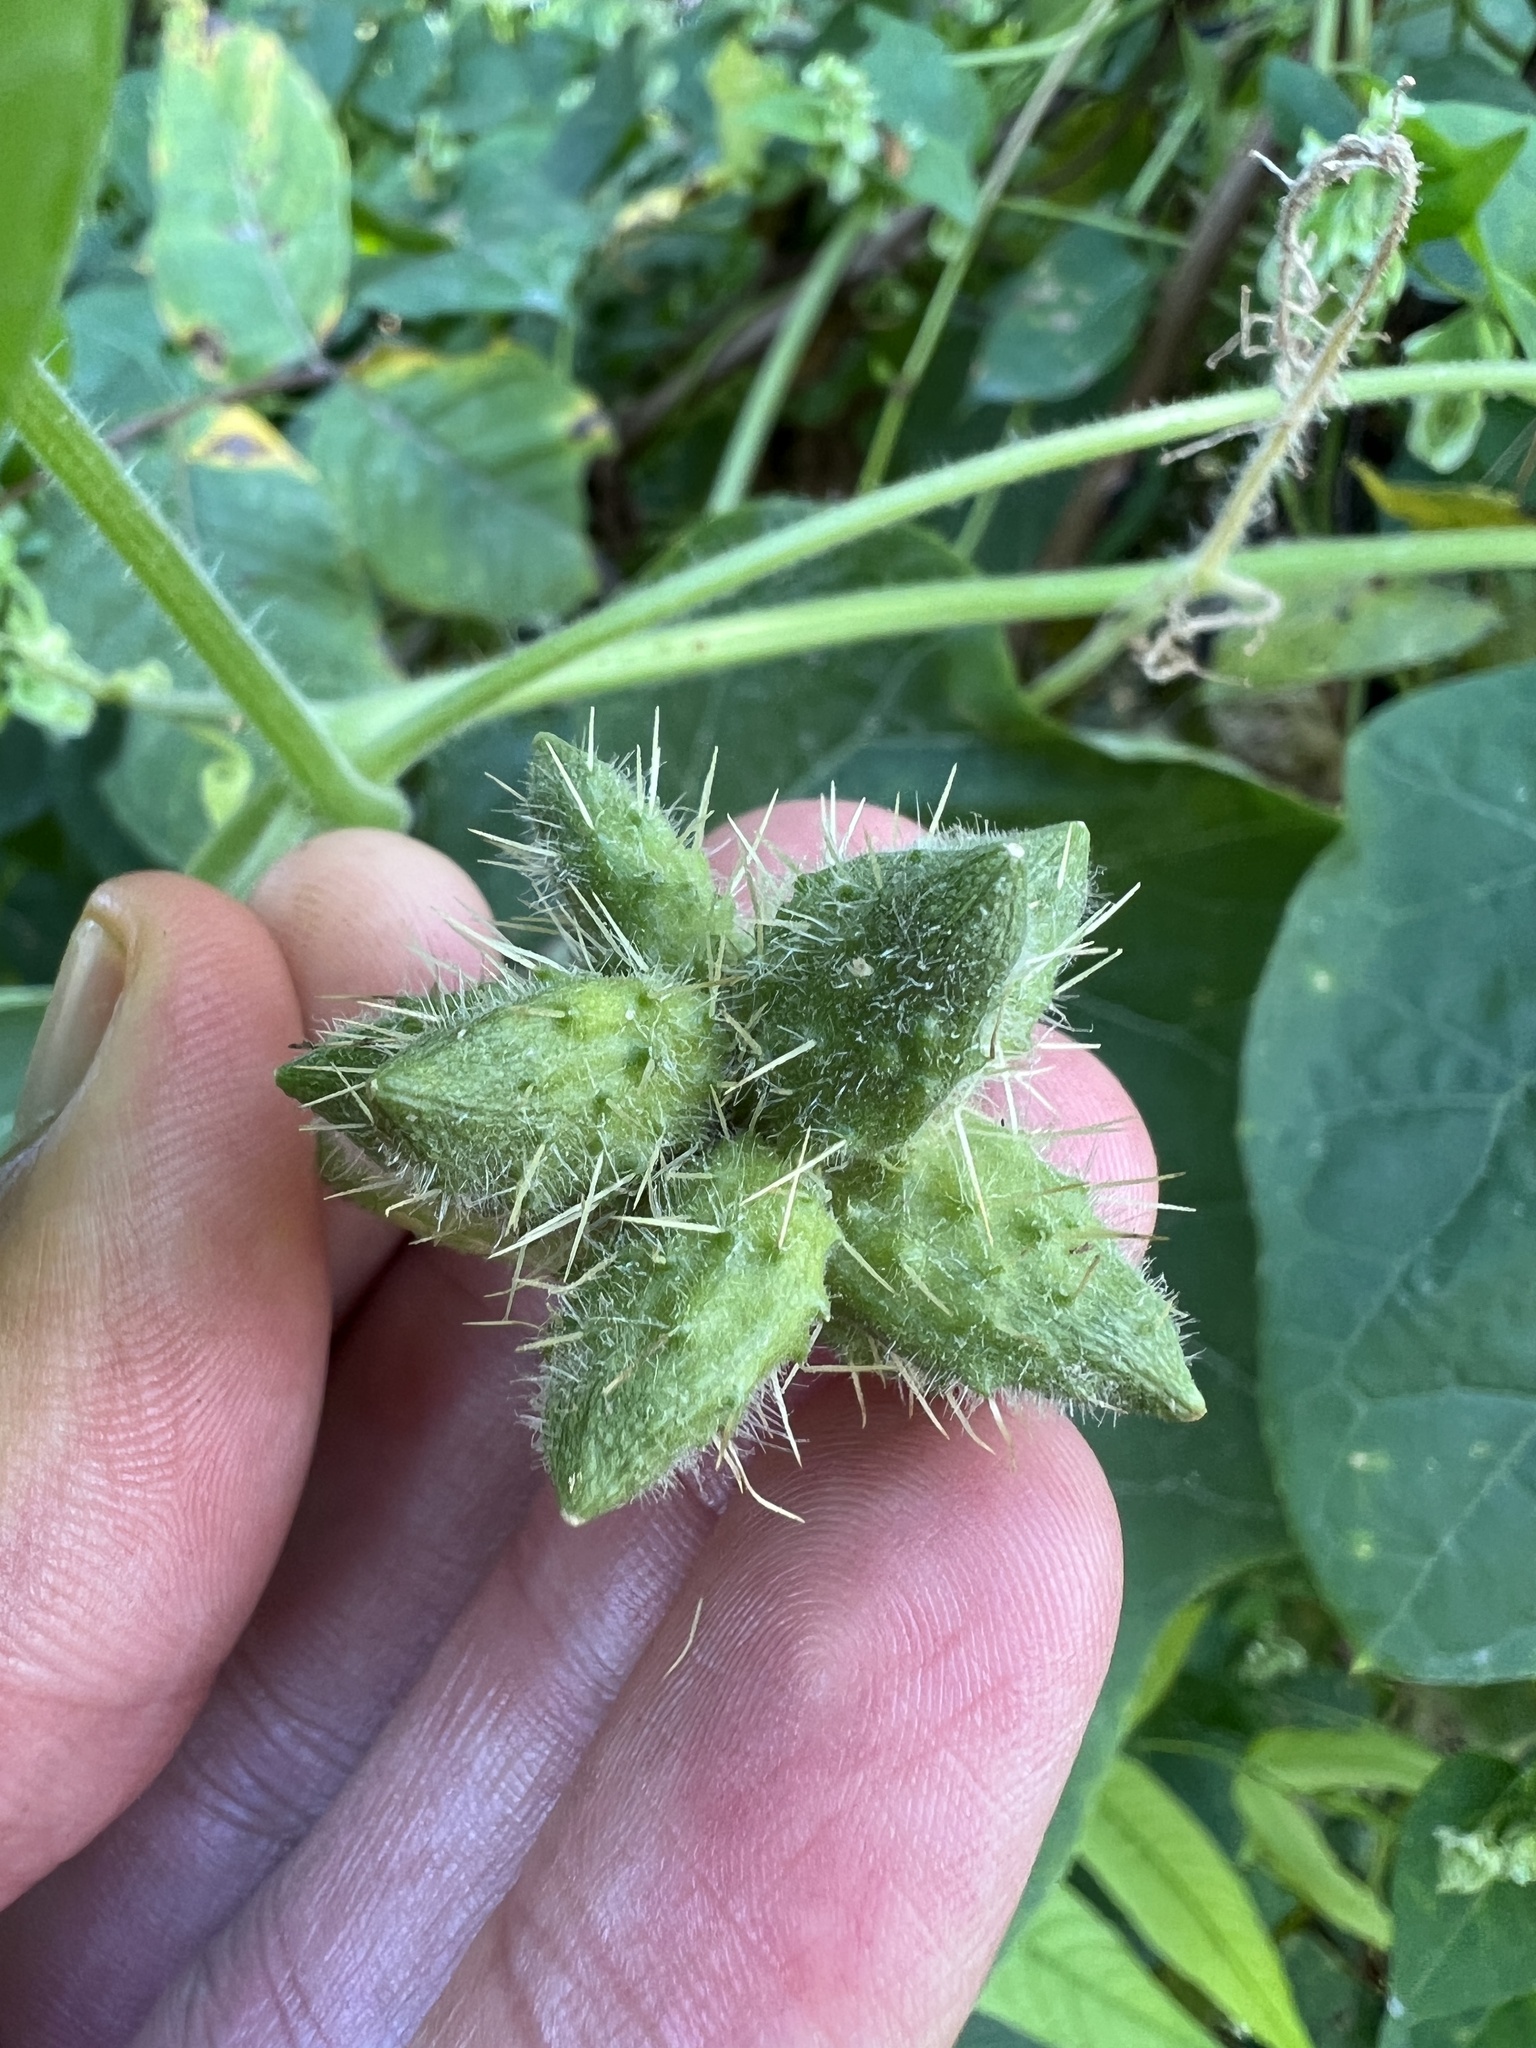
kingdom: Plantae
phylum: Tracheophyta
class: Magnoliopsida
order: Cucurbitales
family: Cucurbitaceae
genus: Sicyos
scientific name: Sicyos angulatus
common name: Angled burr cucumber
